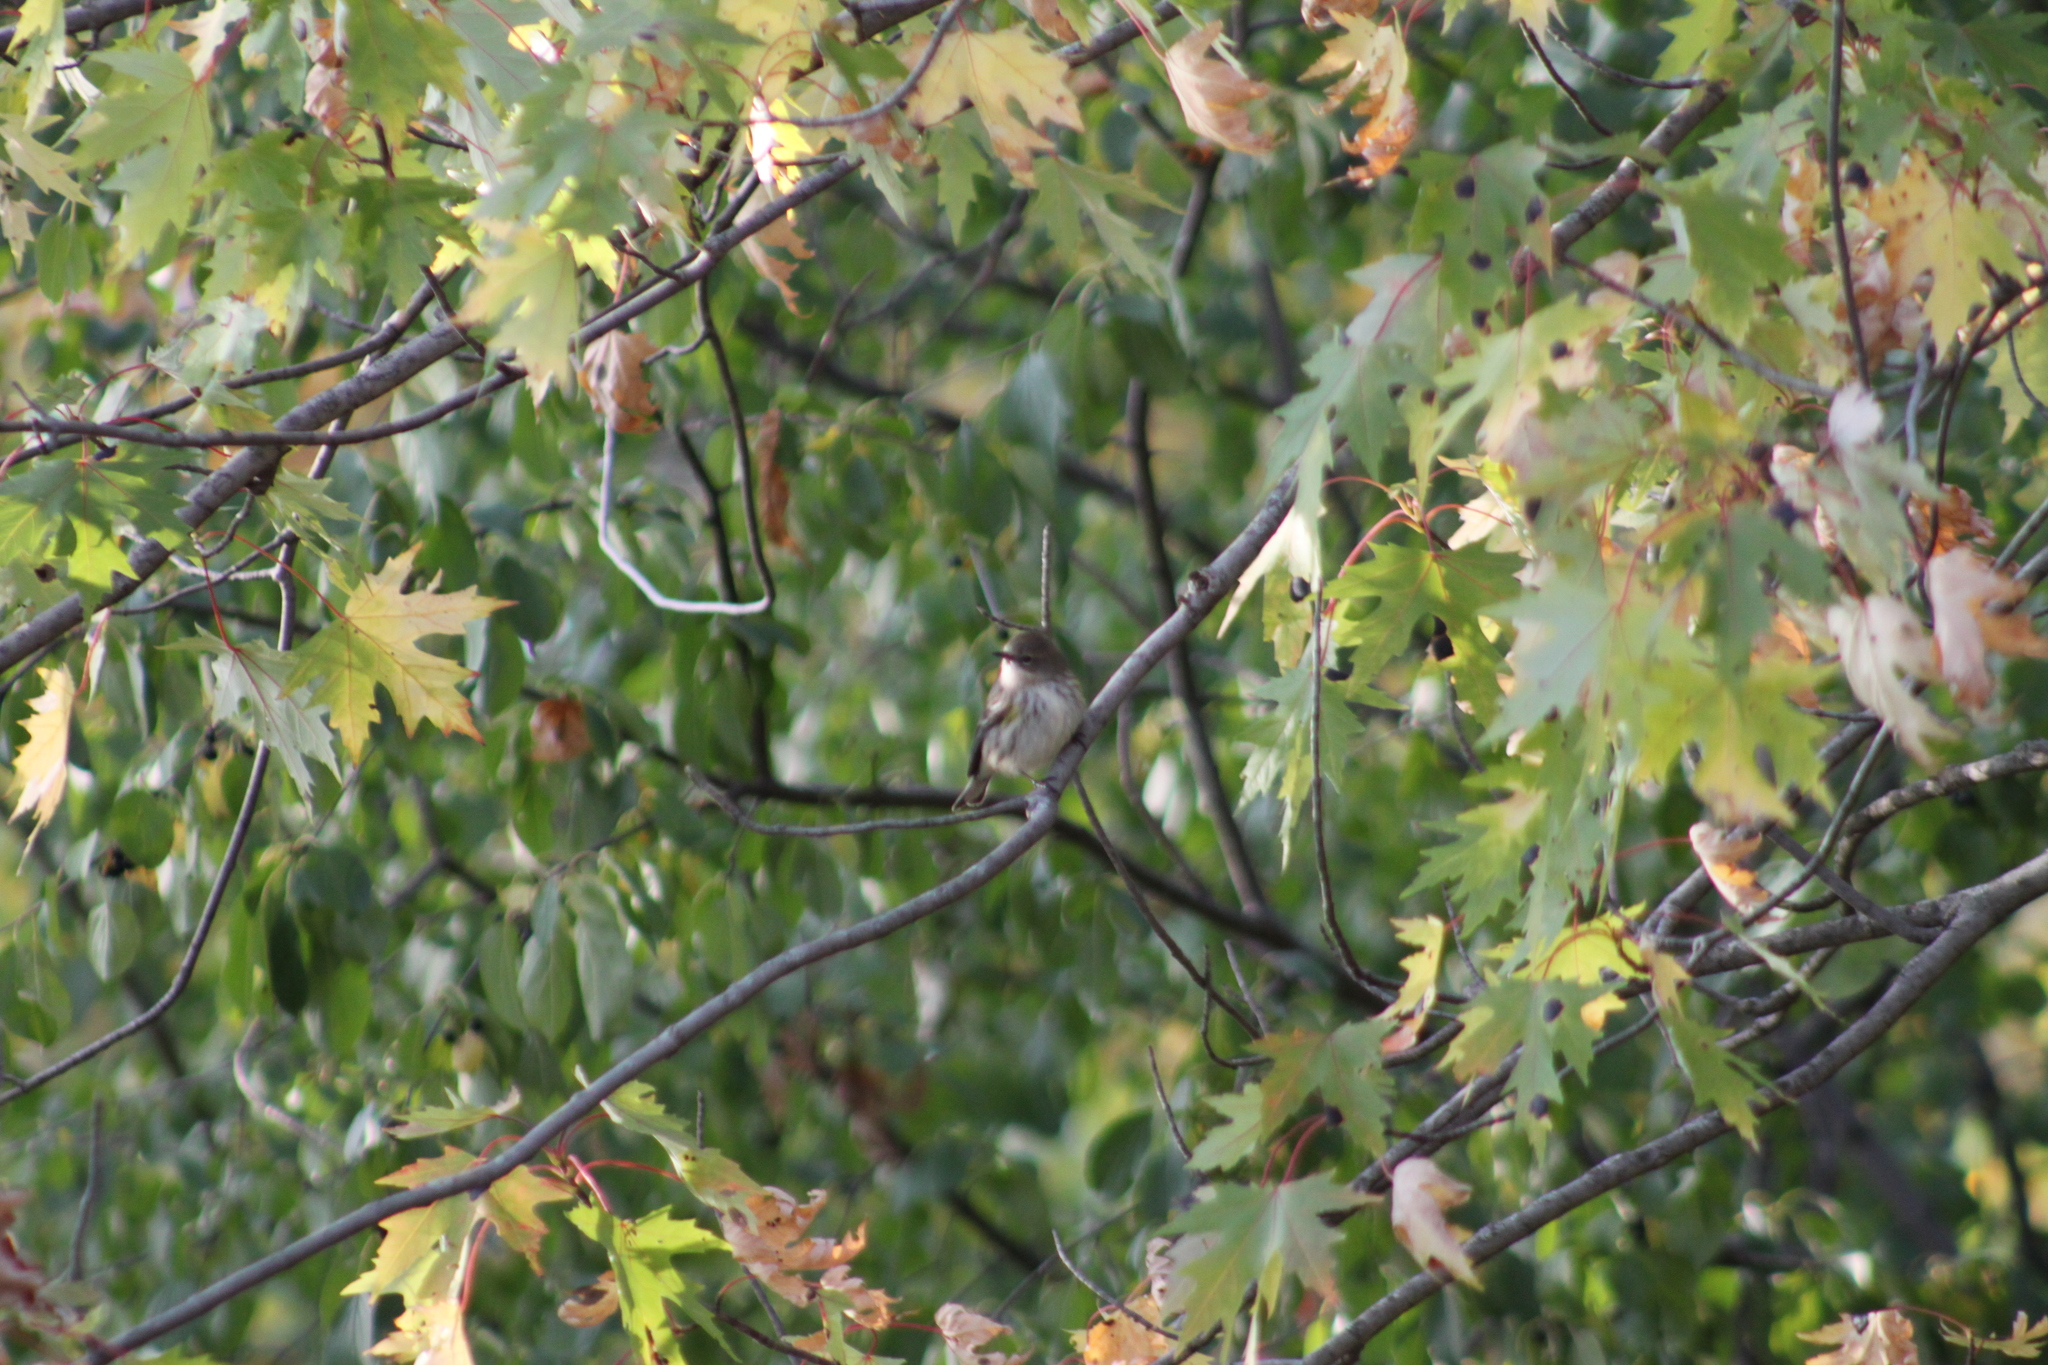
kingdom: Animalia
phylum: Chordata
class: Aves
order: Passeriformes
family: Parulidae
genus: Setophaga
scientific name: Setophaga coronata
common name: Myrtle warbler
